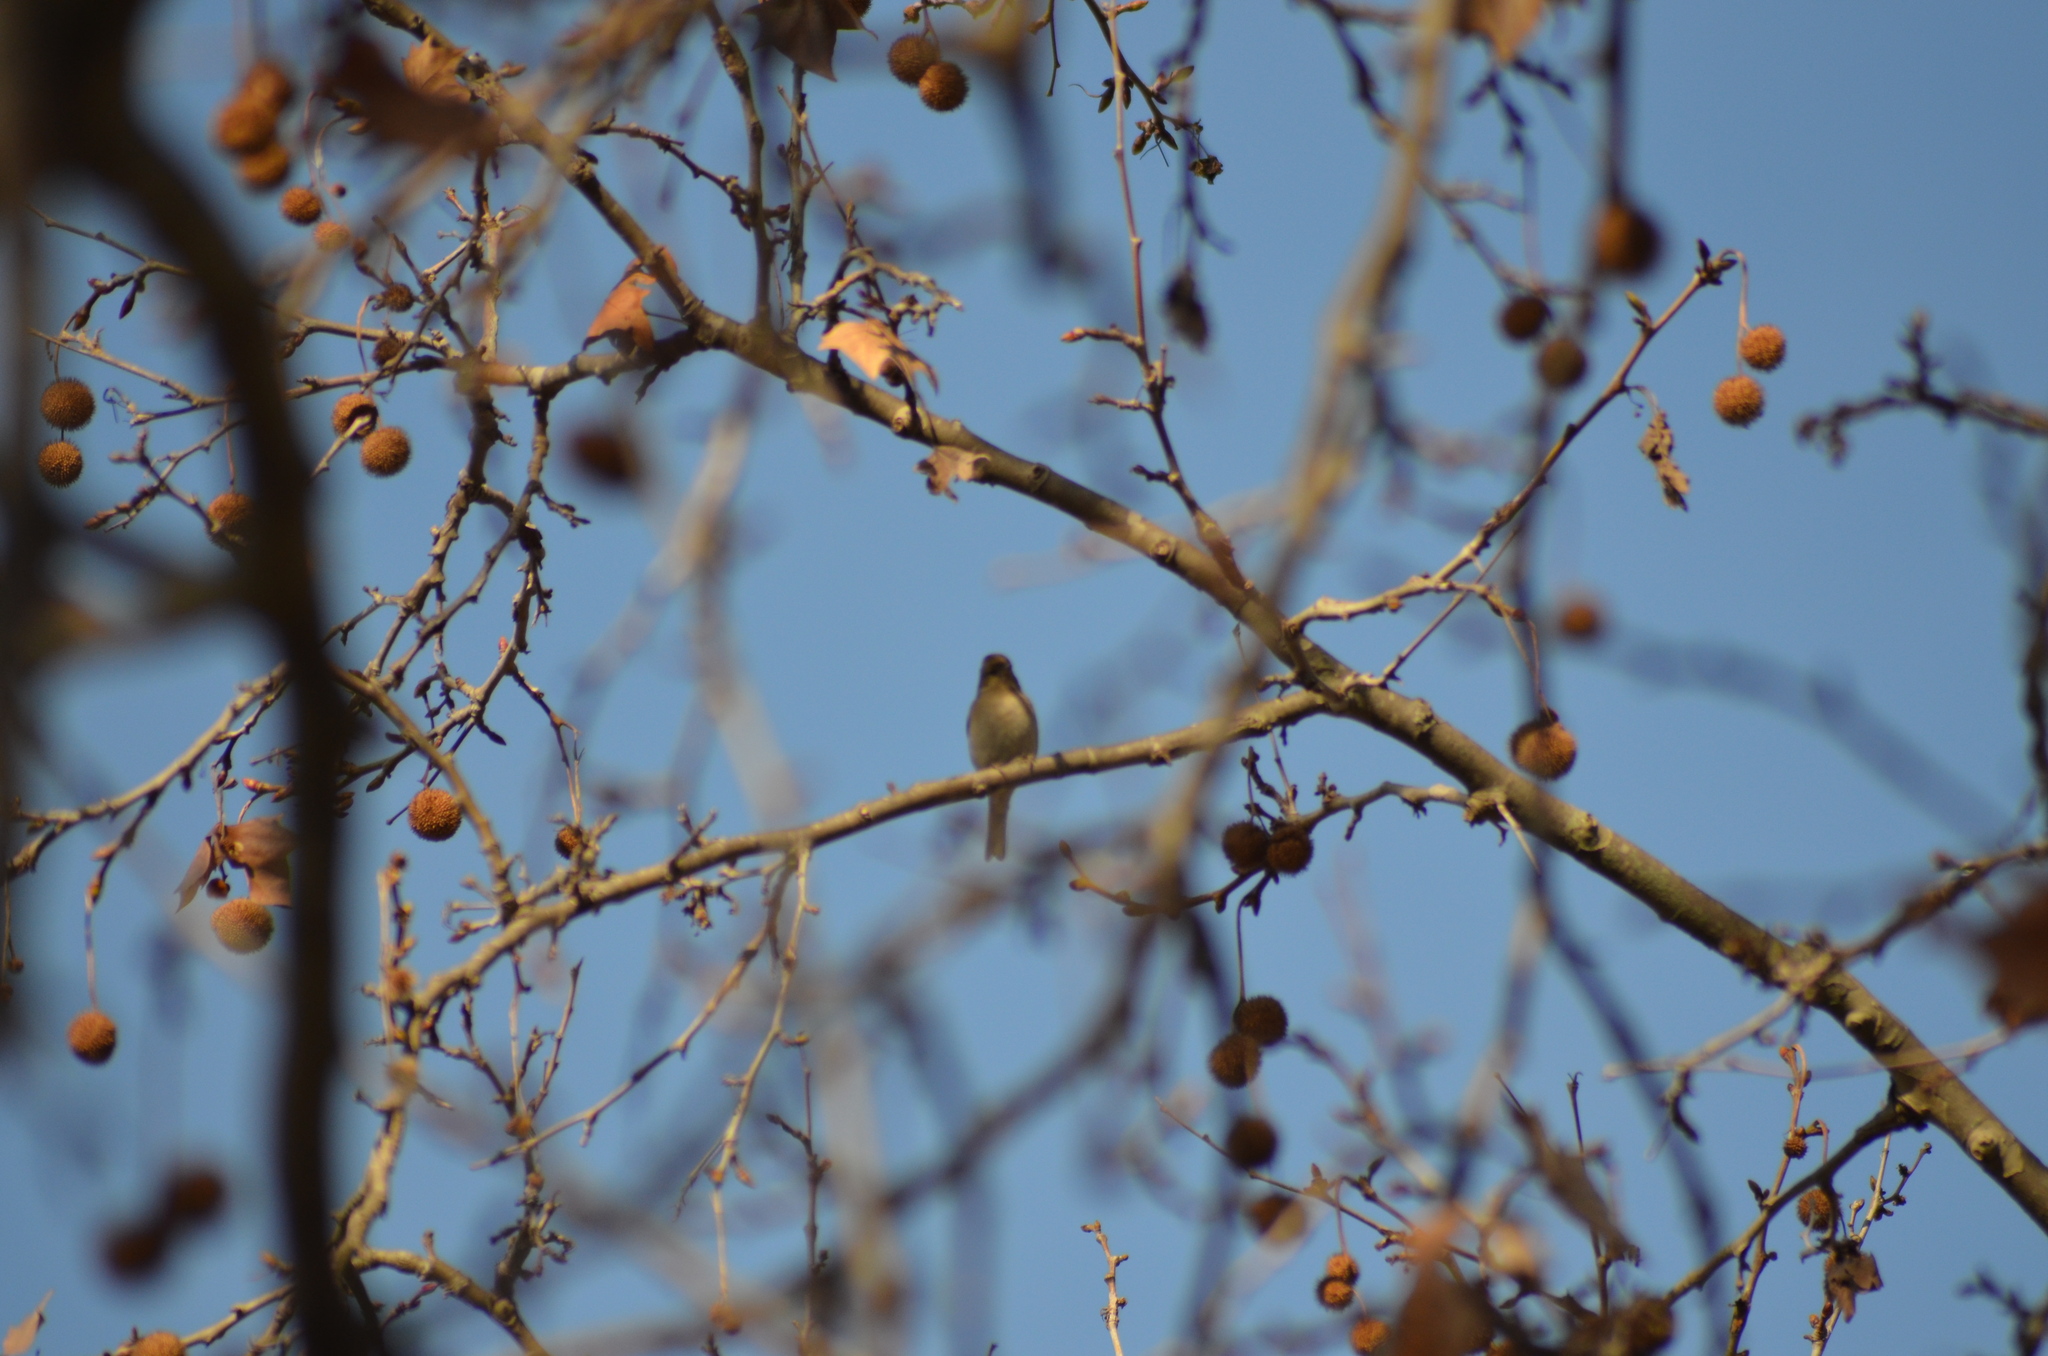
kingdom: Animalia
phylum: Chordata
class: Aves
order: Passeriformes
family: Fringillidae
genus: Fringilla
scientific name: Fringilla coelebs
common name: Common chaffinch
